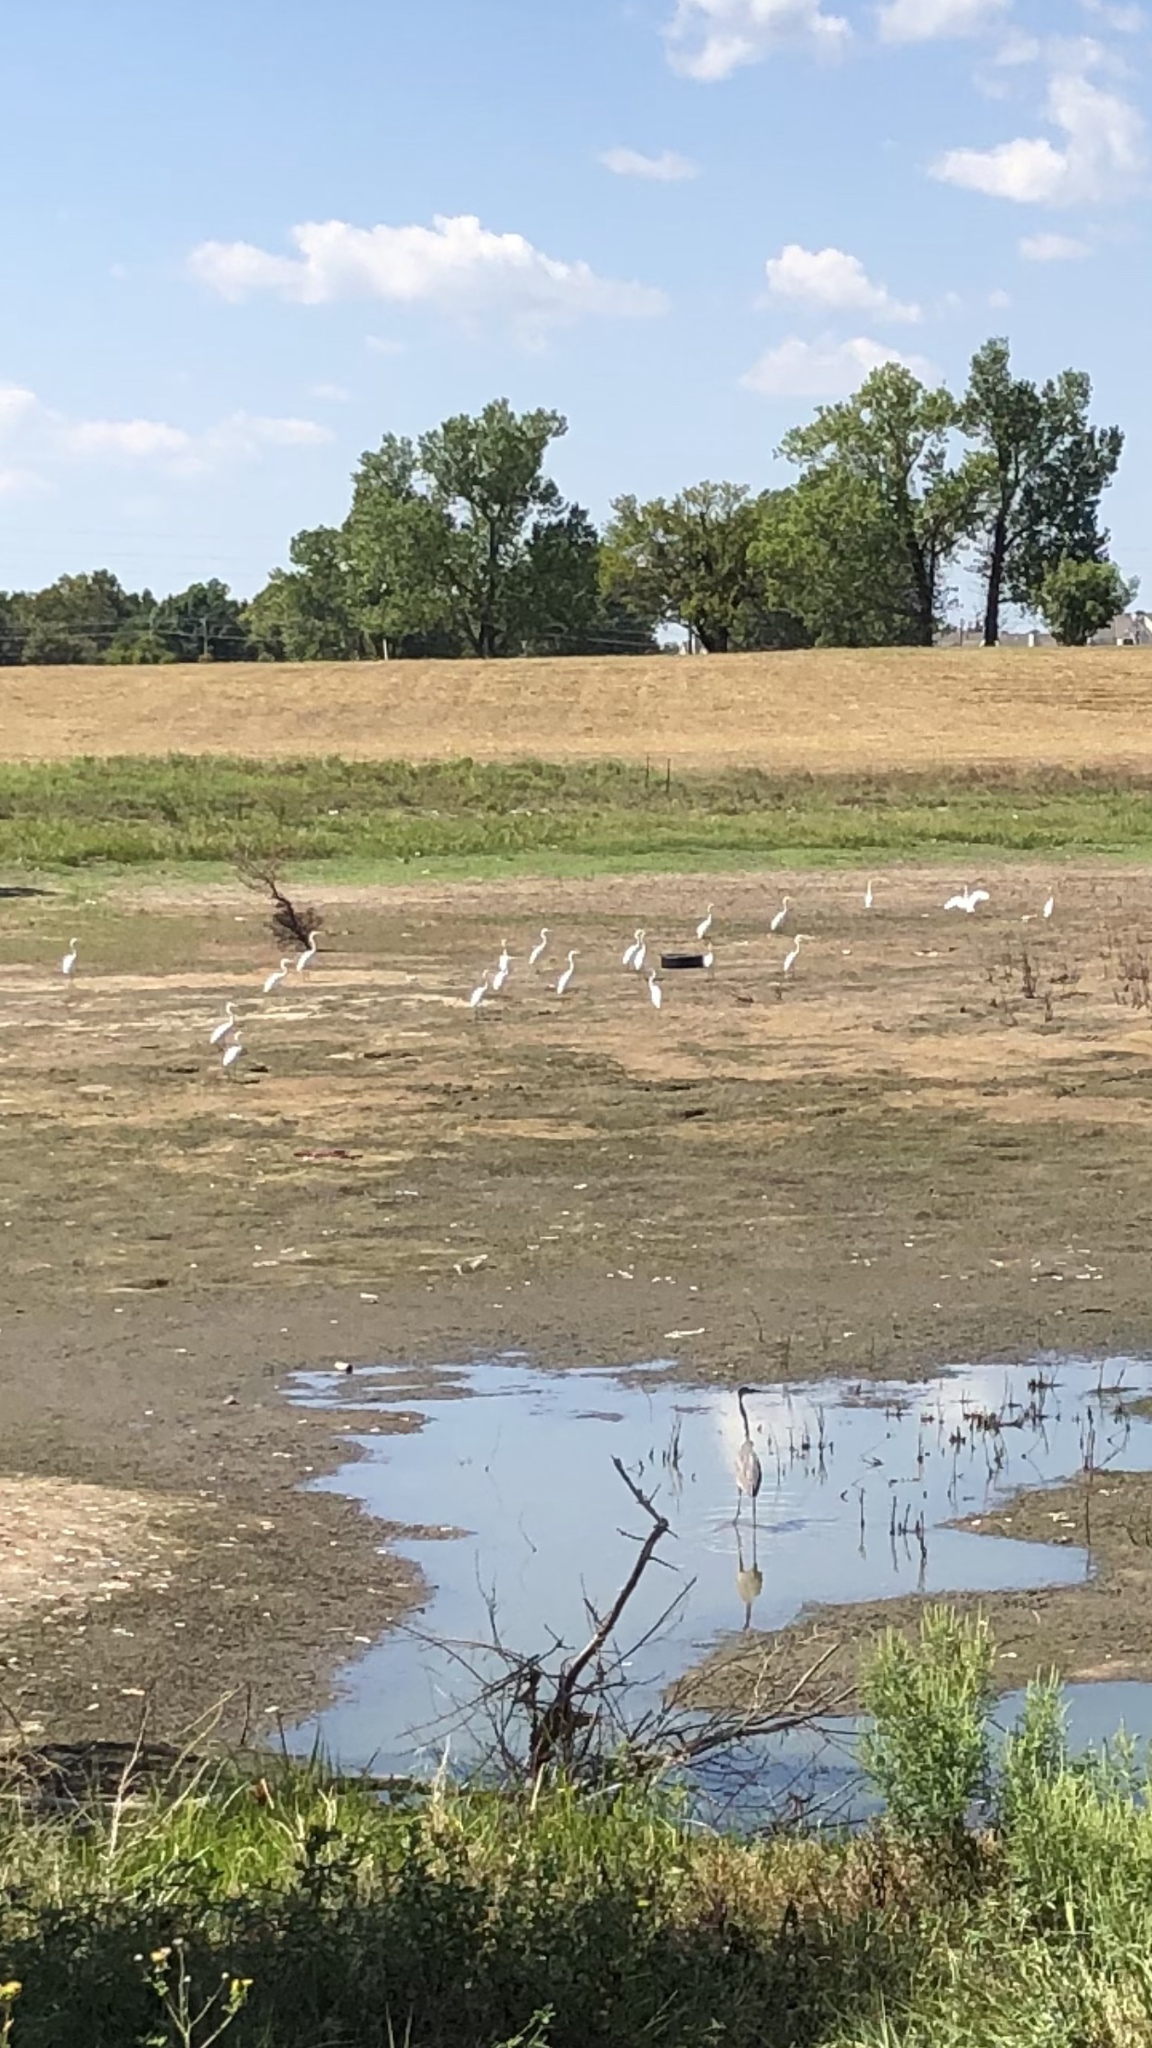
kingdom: Animalia
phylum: Chordata
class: Aves
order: Pelecaniformes
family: Ardeidae
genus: Ardea
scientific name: Ardea alba
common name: Great egret
